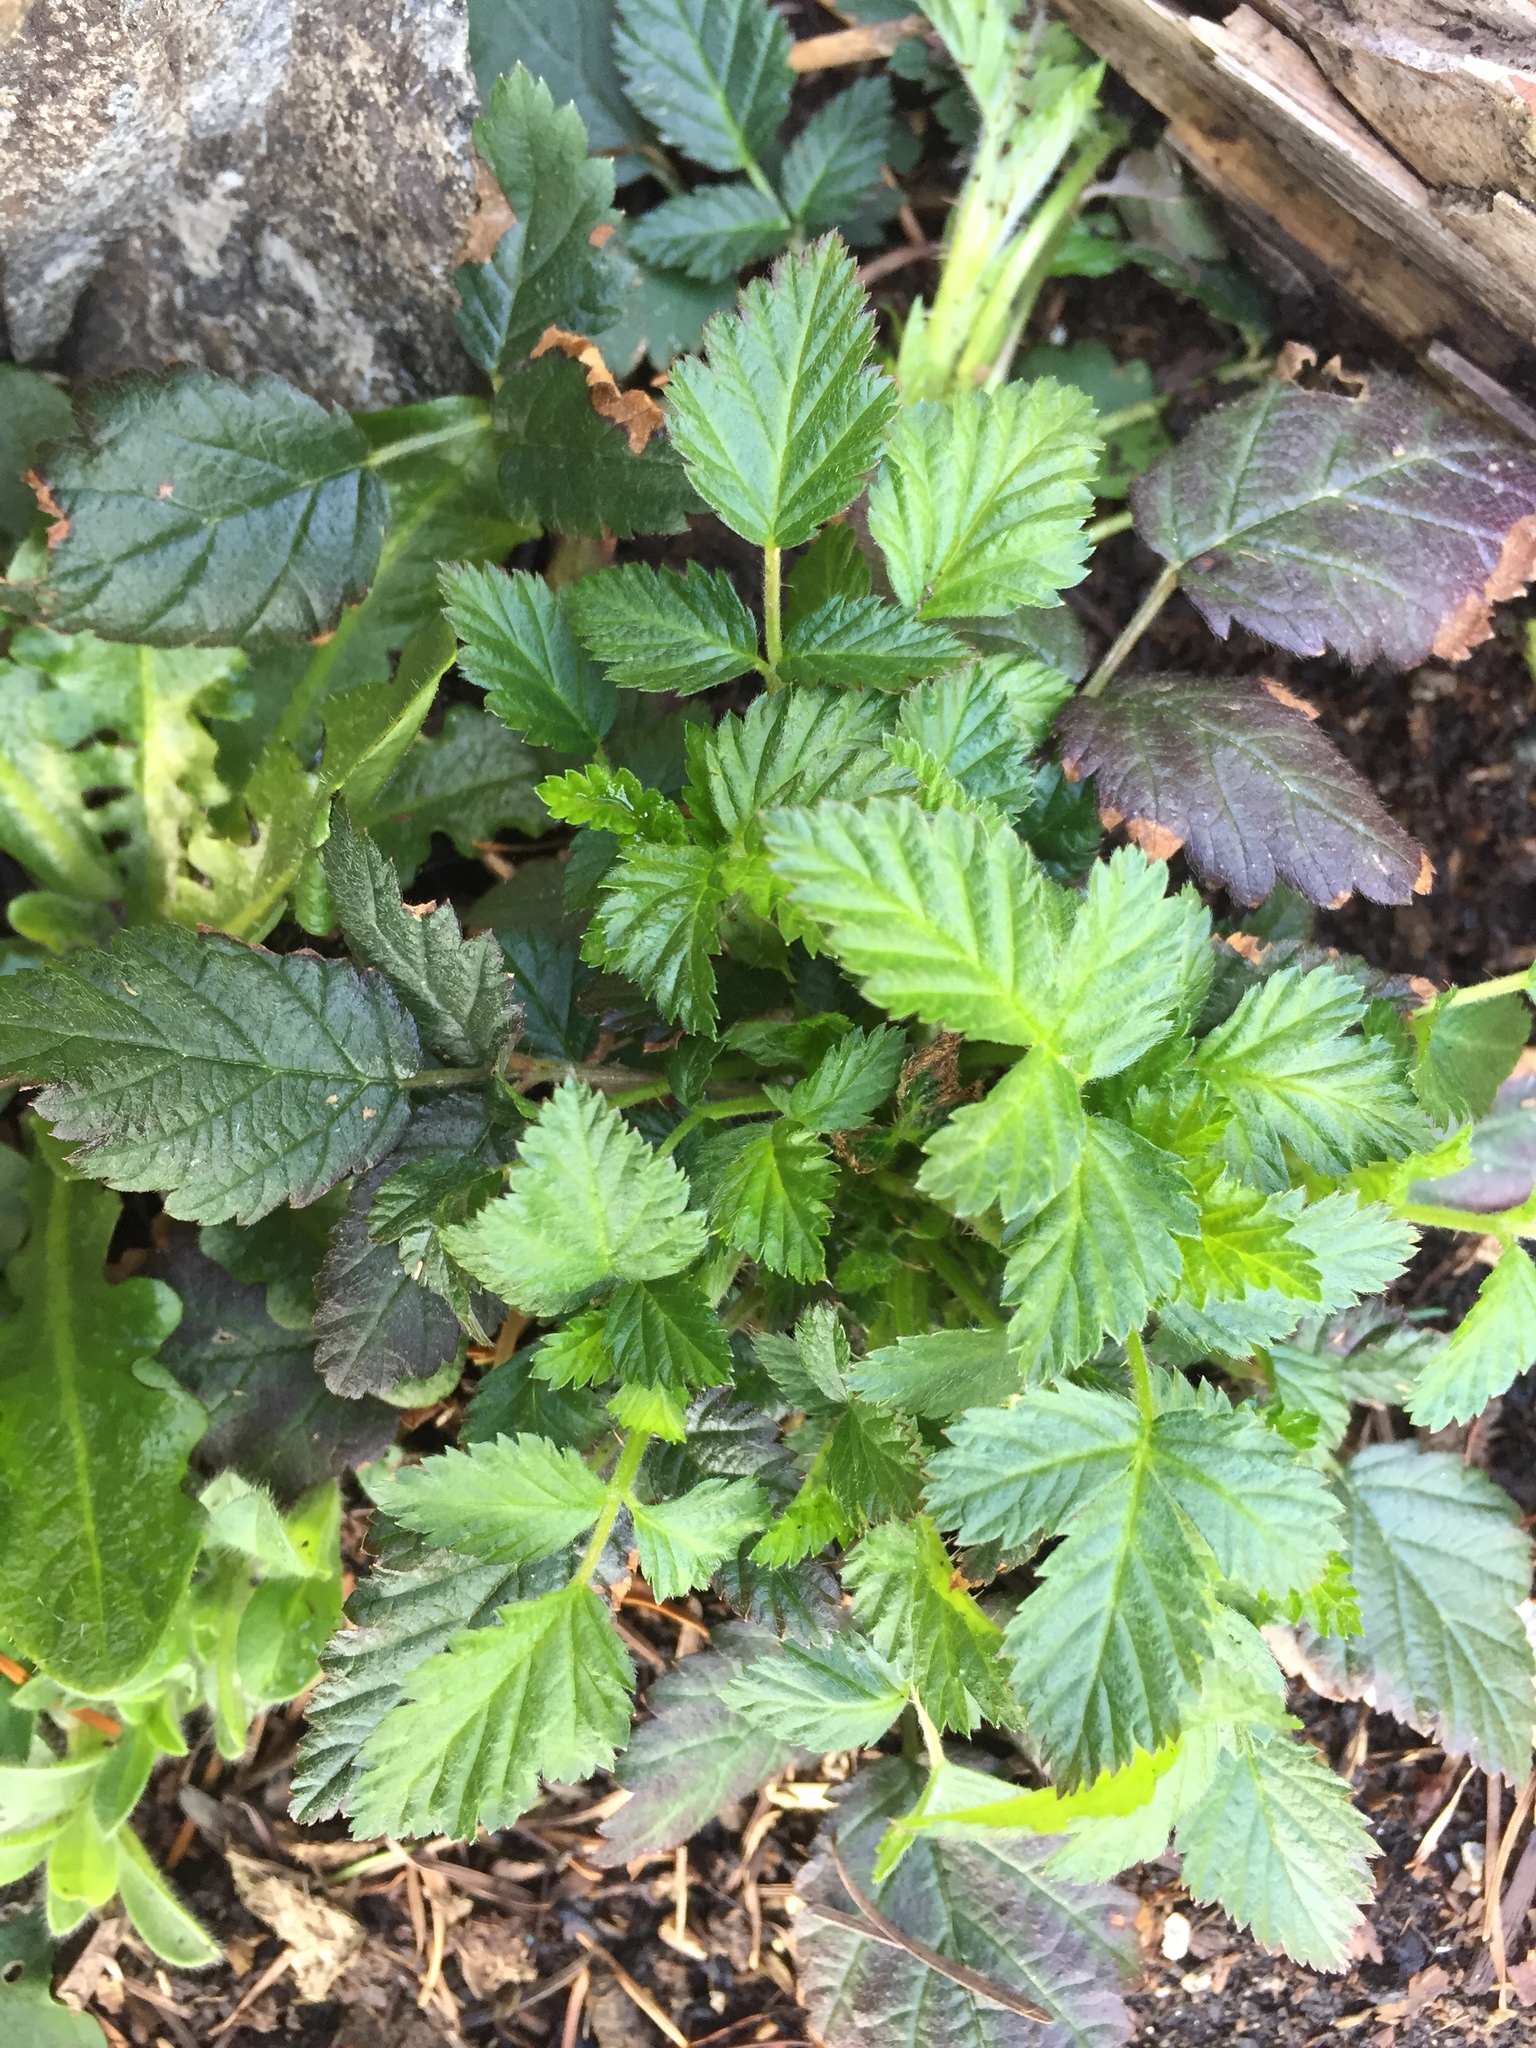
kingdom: Plantae
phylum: Tracheophyta
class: Magnoliopsida
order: Rosales
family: Rosaceae
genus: Rubus
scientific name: Rubus ursinus
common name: Pacific blackberry
